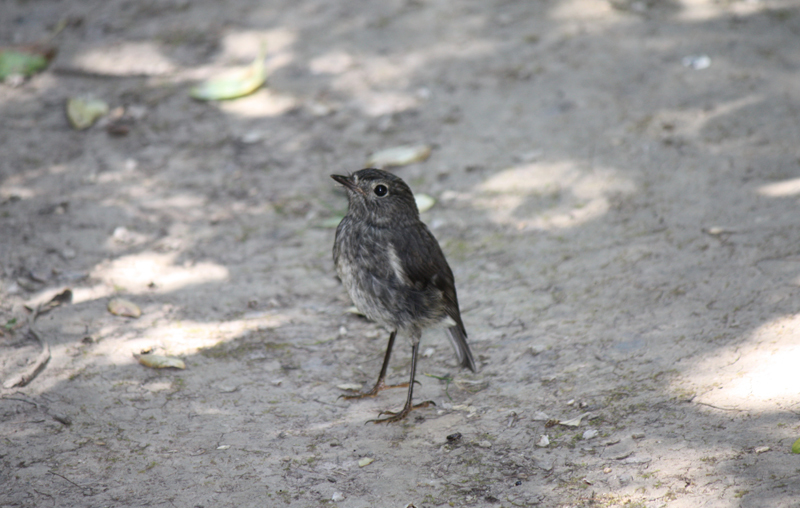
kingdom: Animalia
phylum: Chordata
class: Aves
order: Passeriformes
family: Petroicidae
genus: Petroica
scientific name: Petroica australis
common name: New zealand robin
